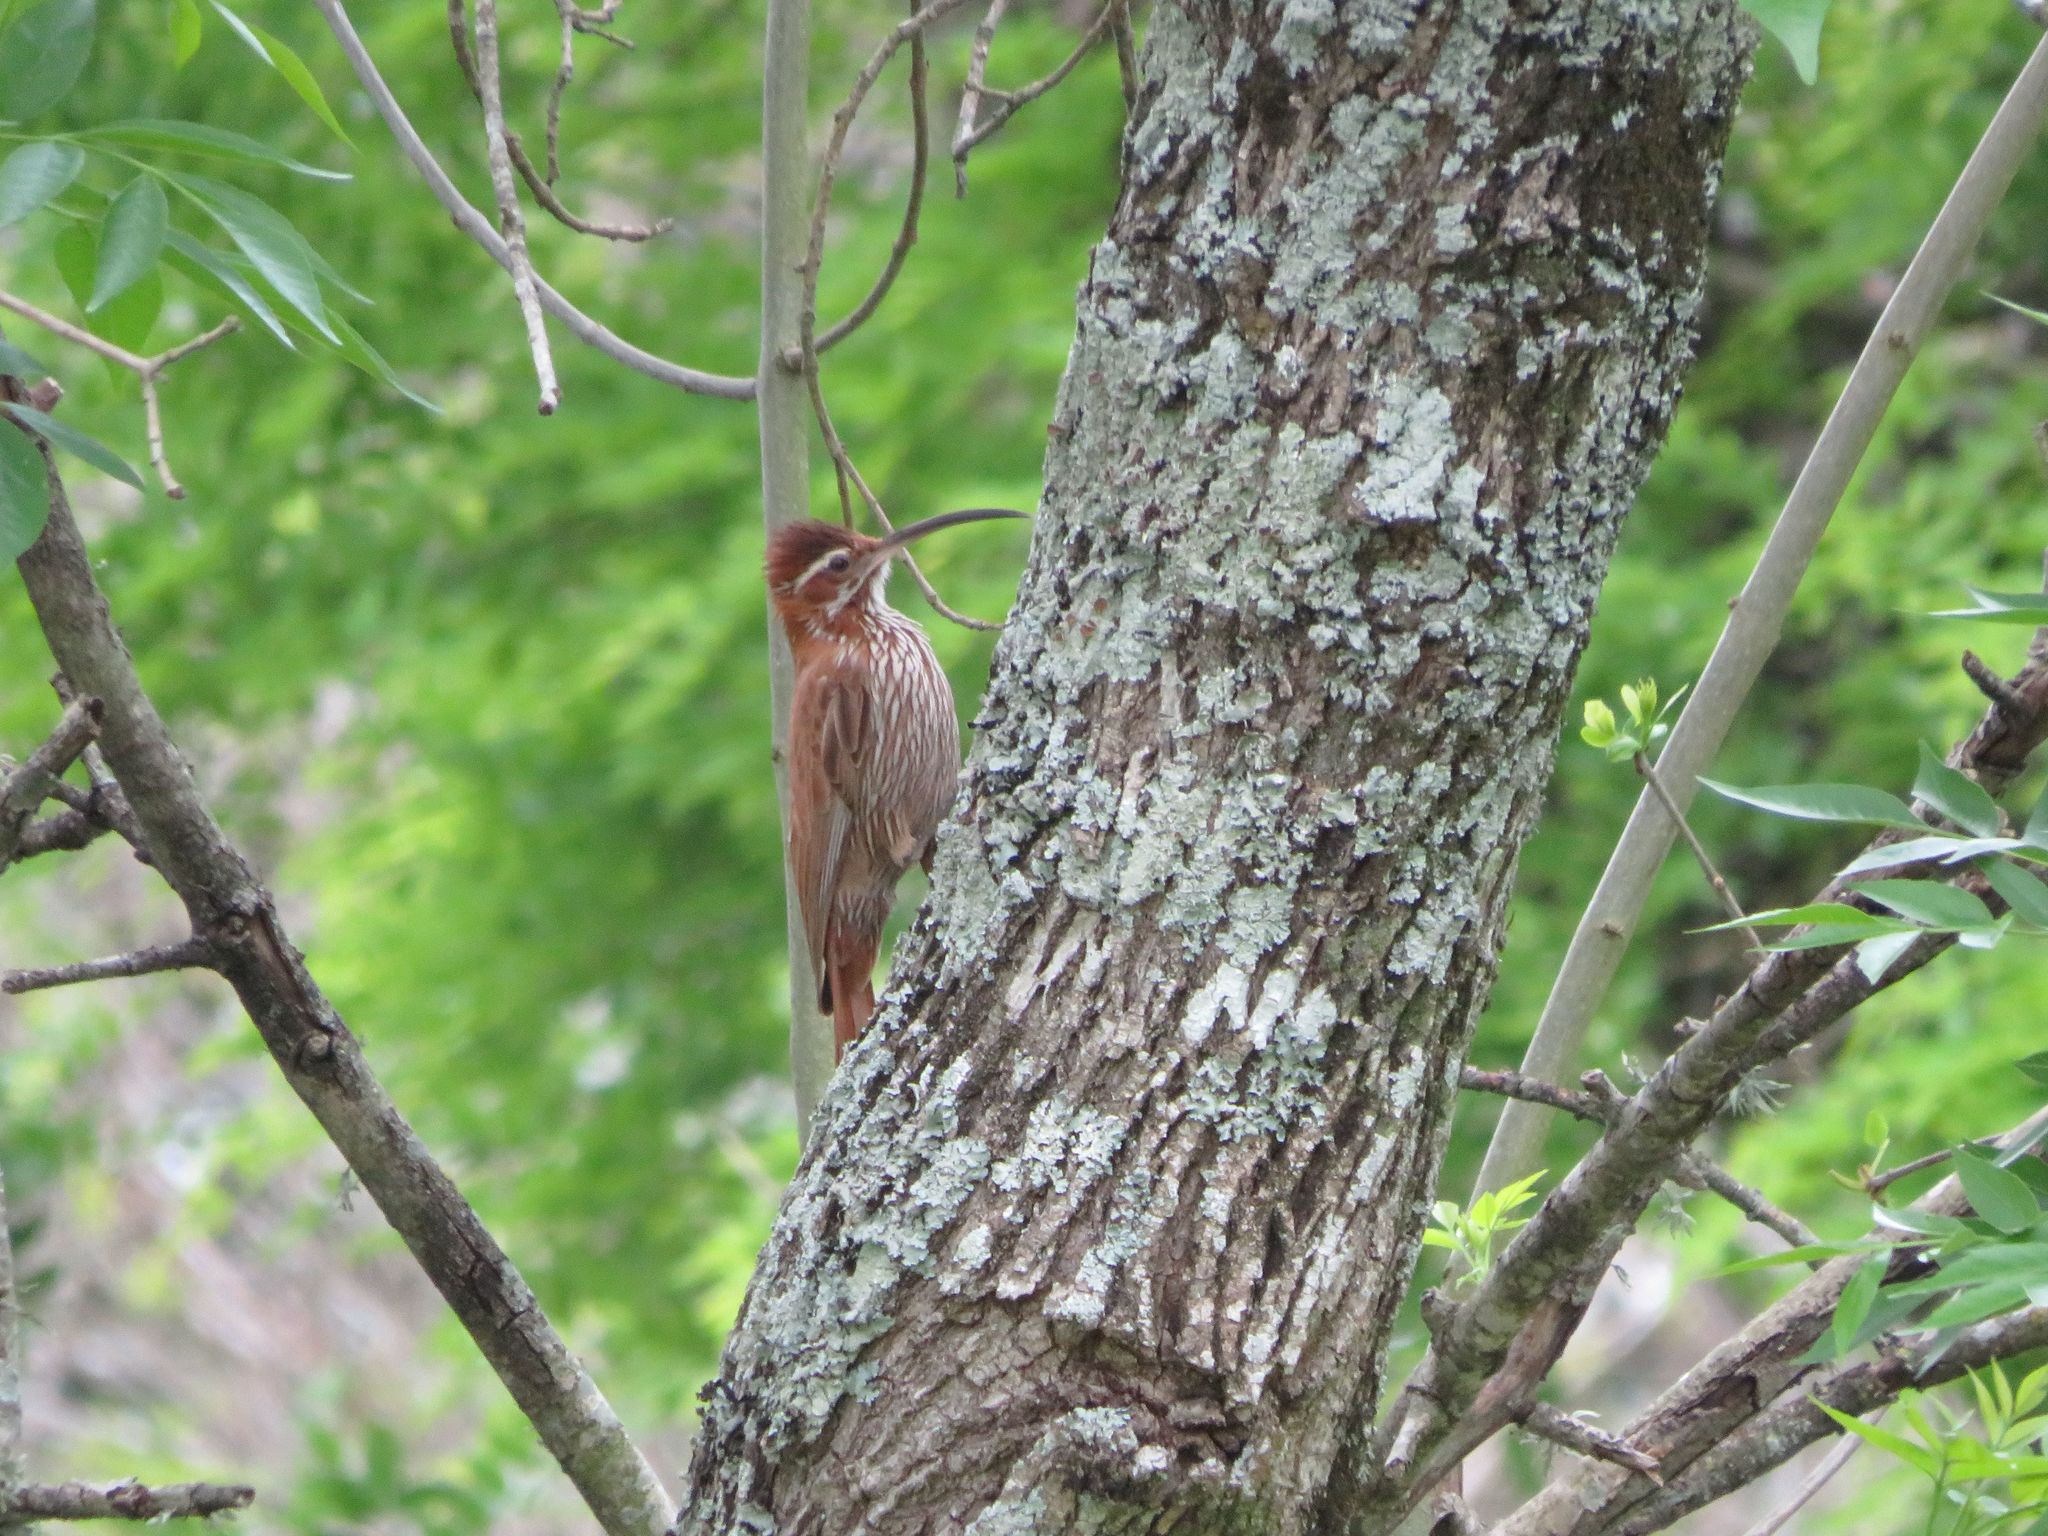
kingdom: Animalia
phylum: Chordata
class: Aves
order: Passeriformes
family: Furnariidae
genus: Drymornis
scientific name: Drymornis bridgesii
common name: Scimitar-billed woodcreeper
